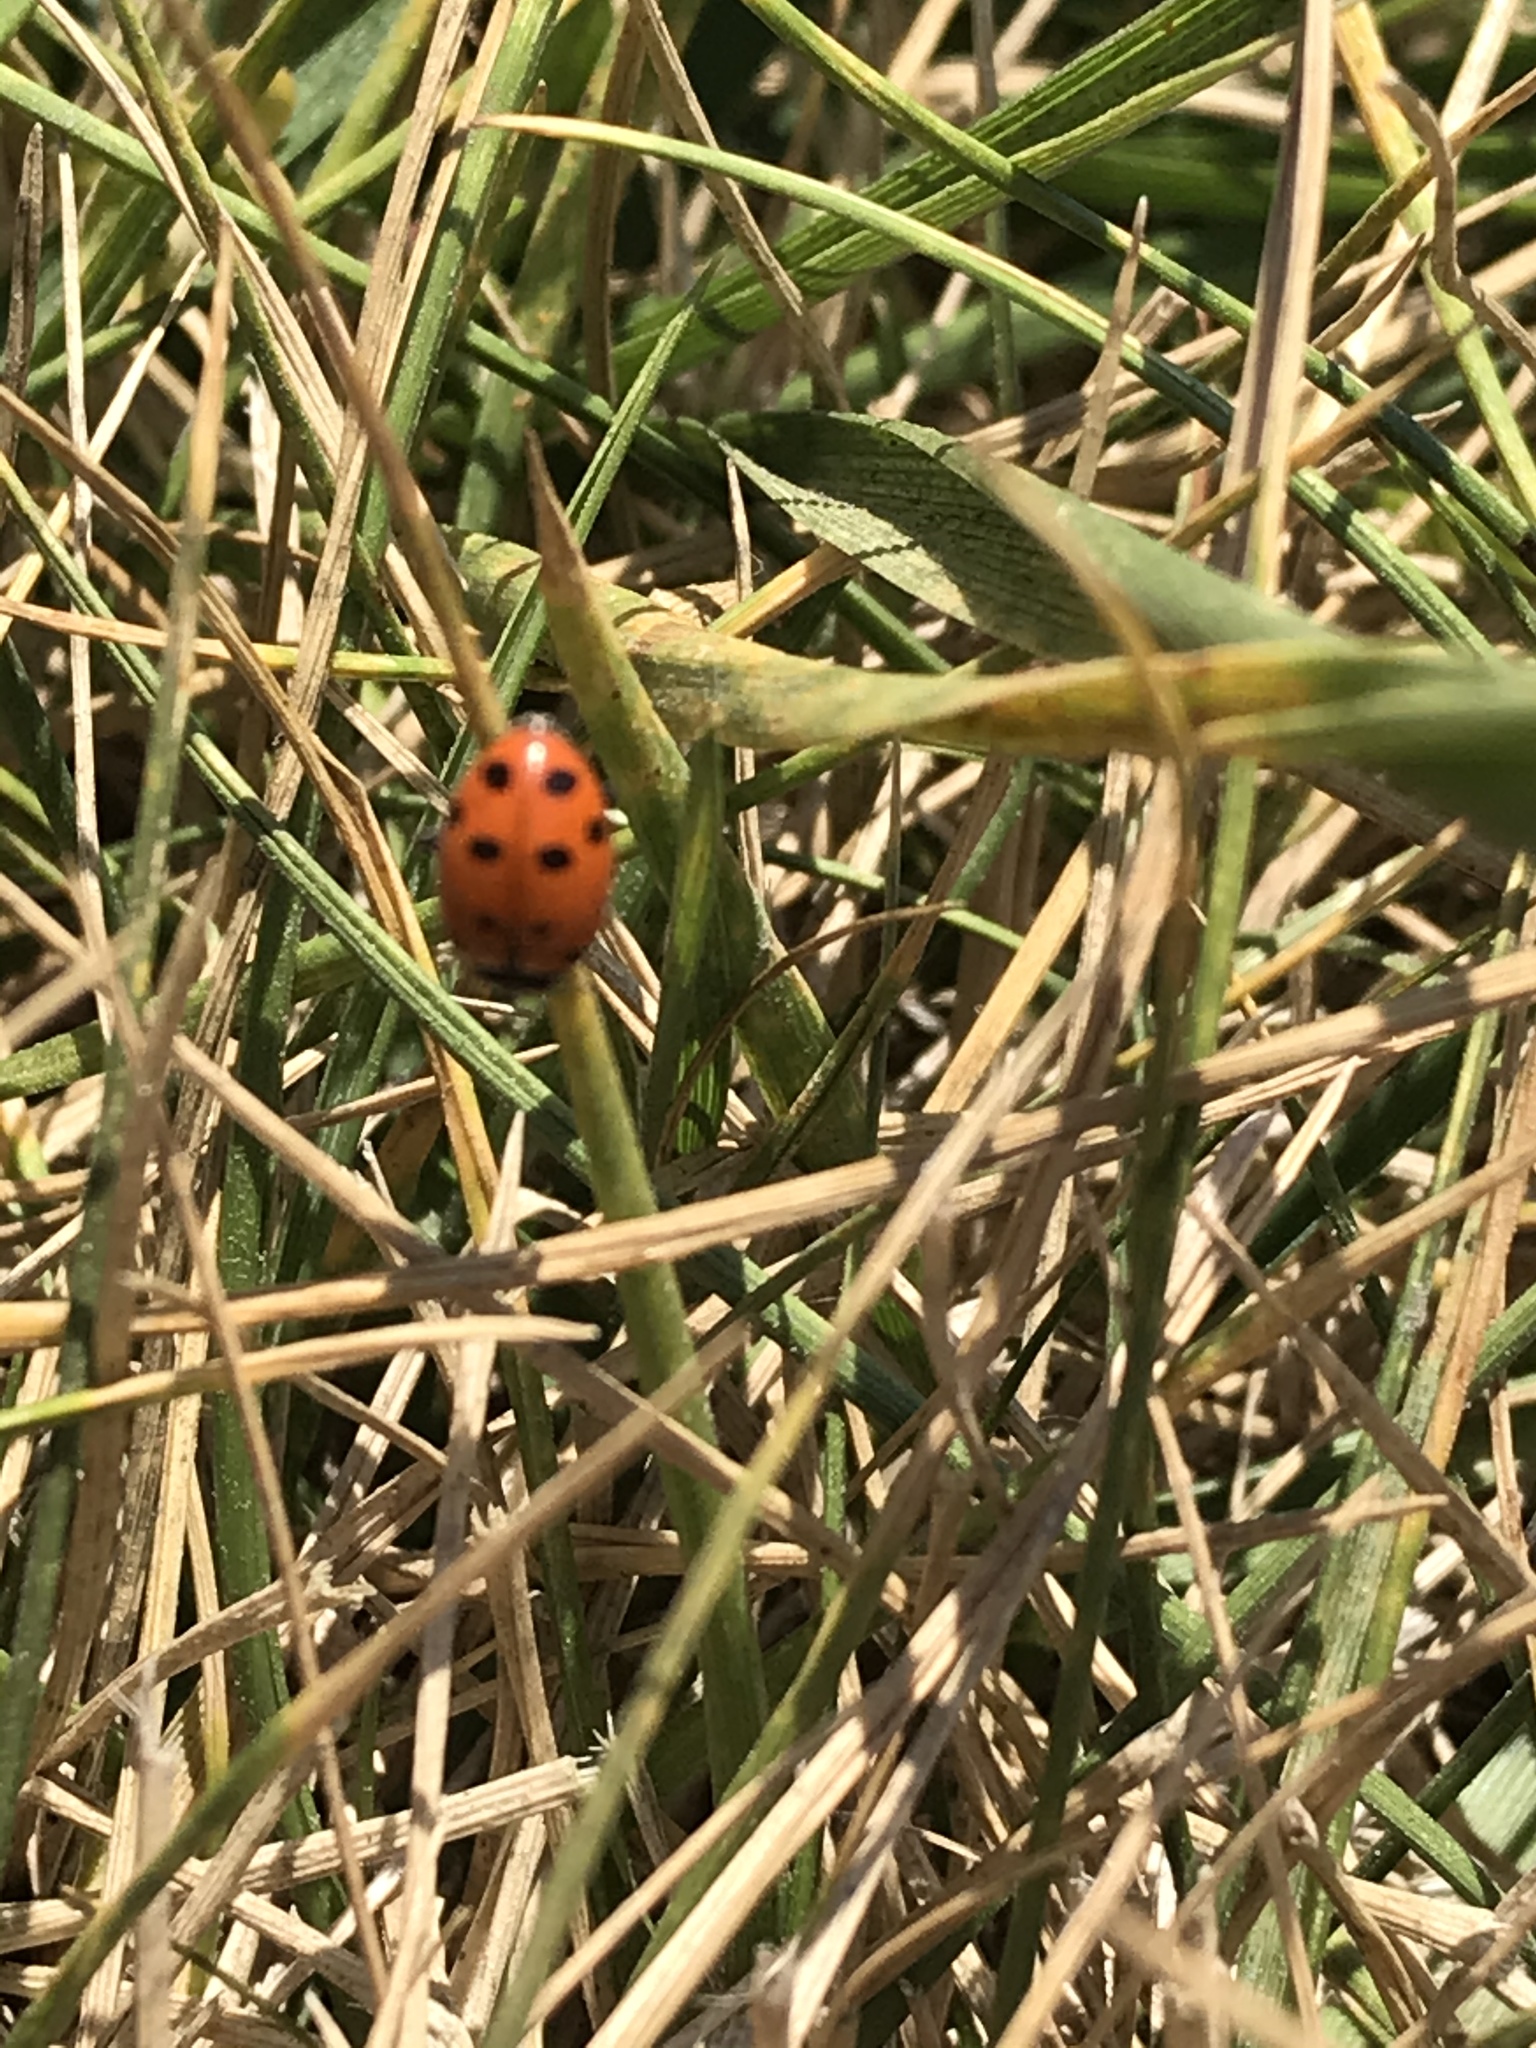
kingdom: Animalia
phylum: Arthropoda
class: Insecta
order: Coleoptera
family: Coccinellidae
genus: Hippodamia
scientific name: Hippodamia convergens
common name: Convergent lady beetle
